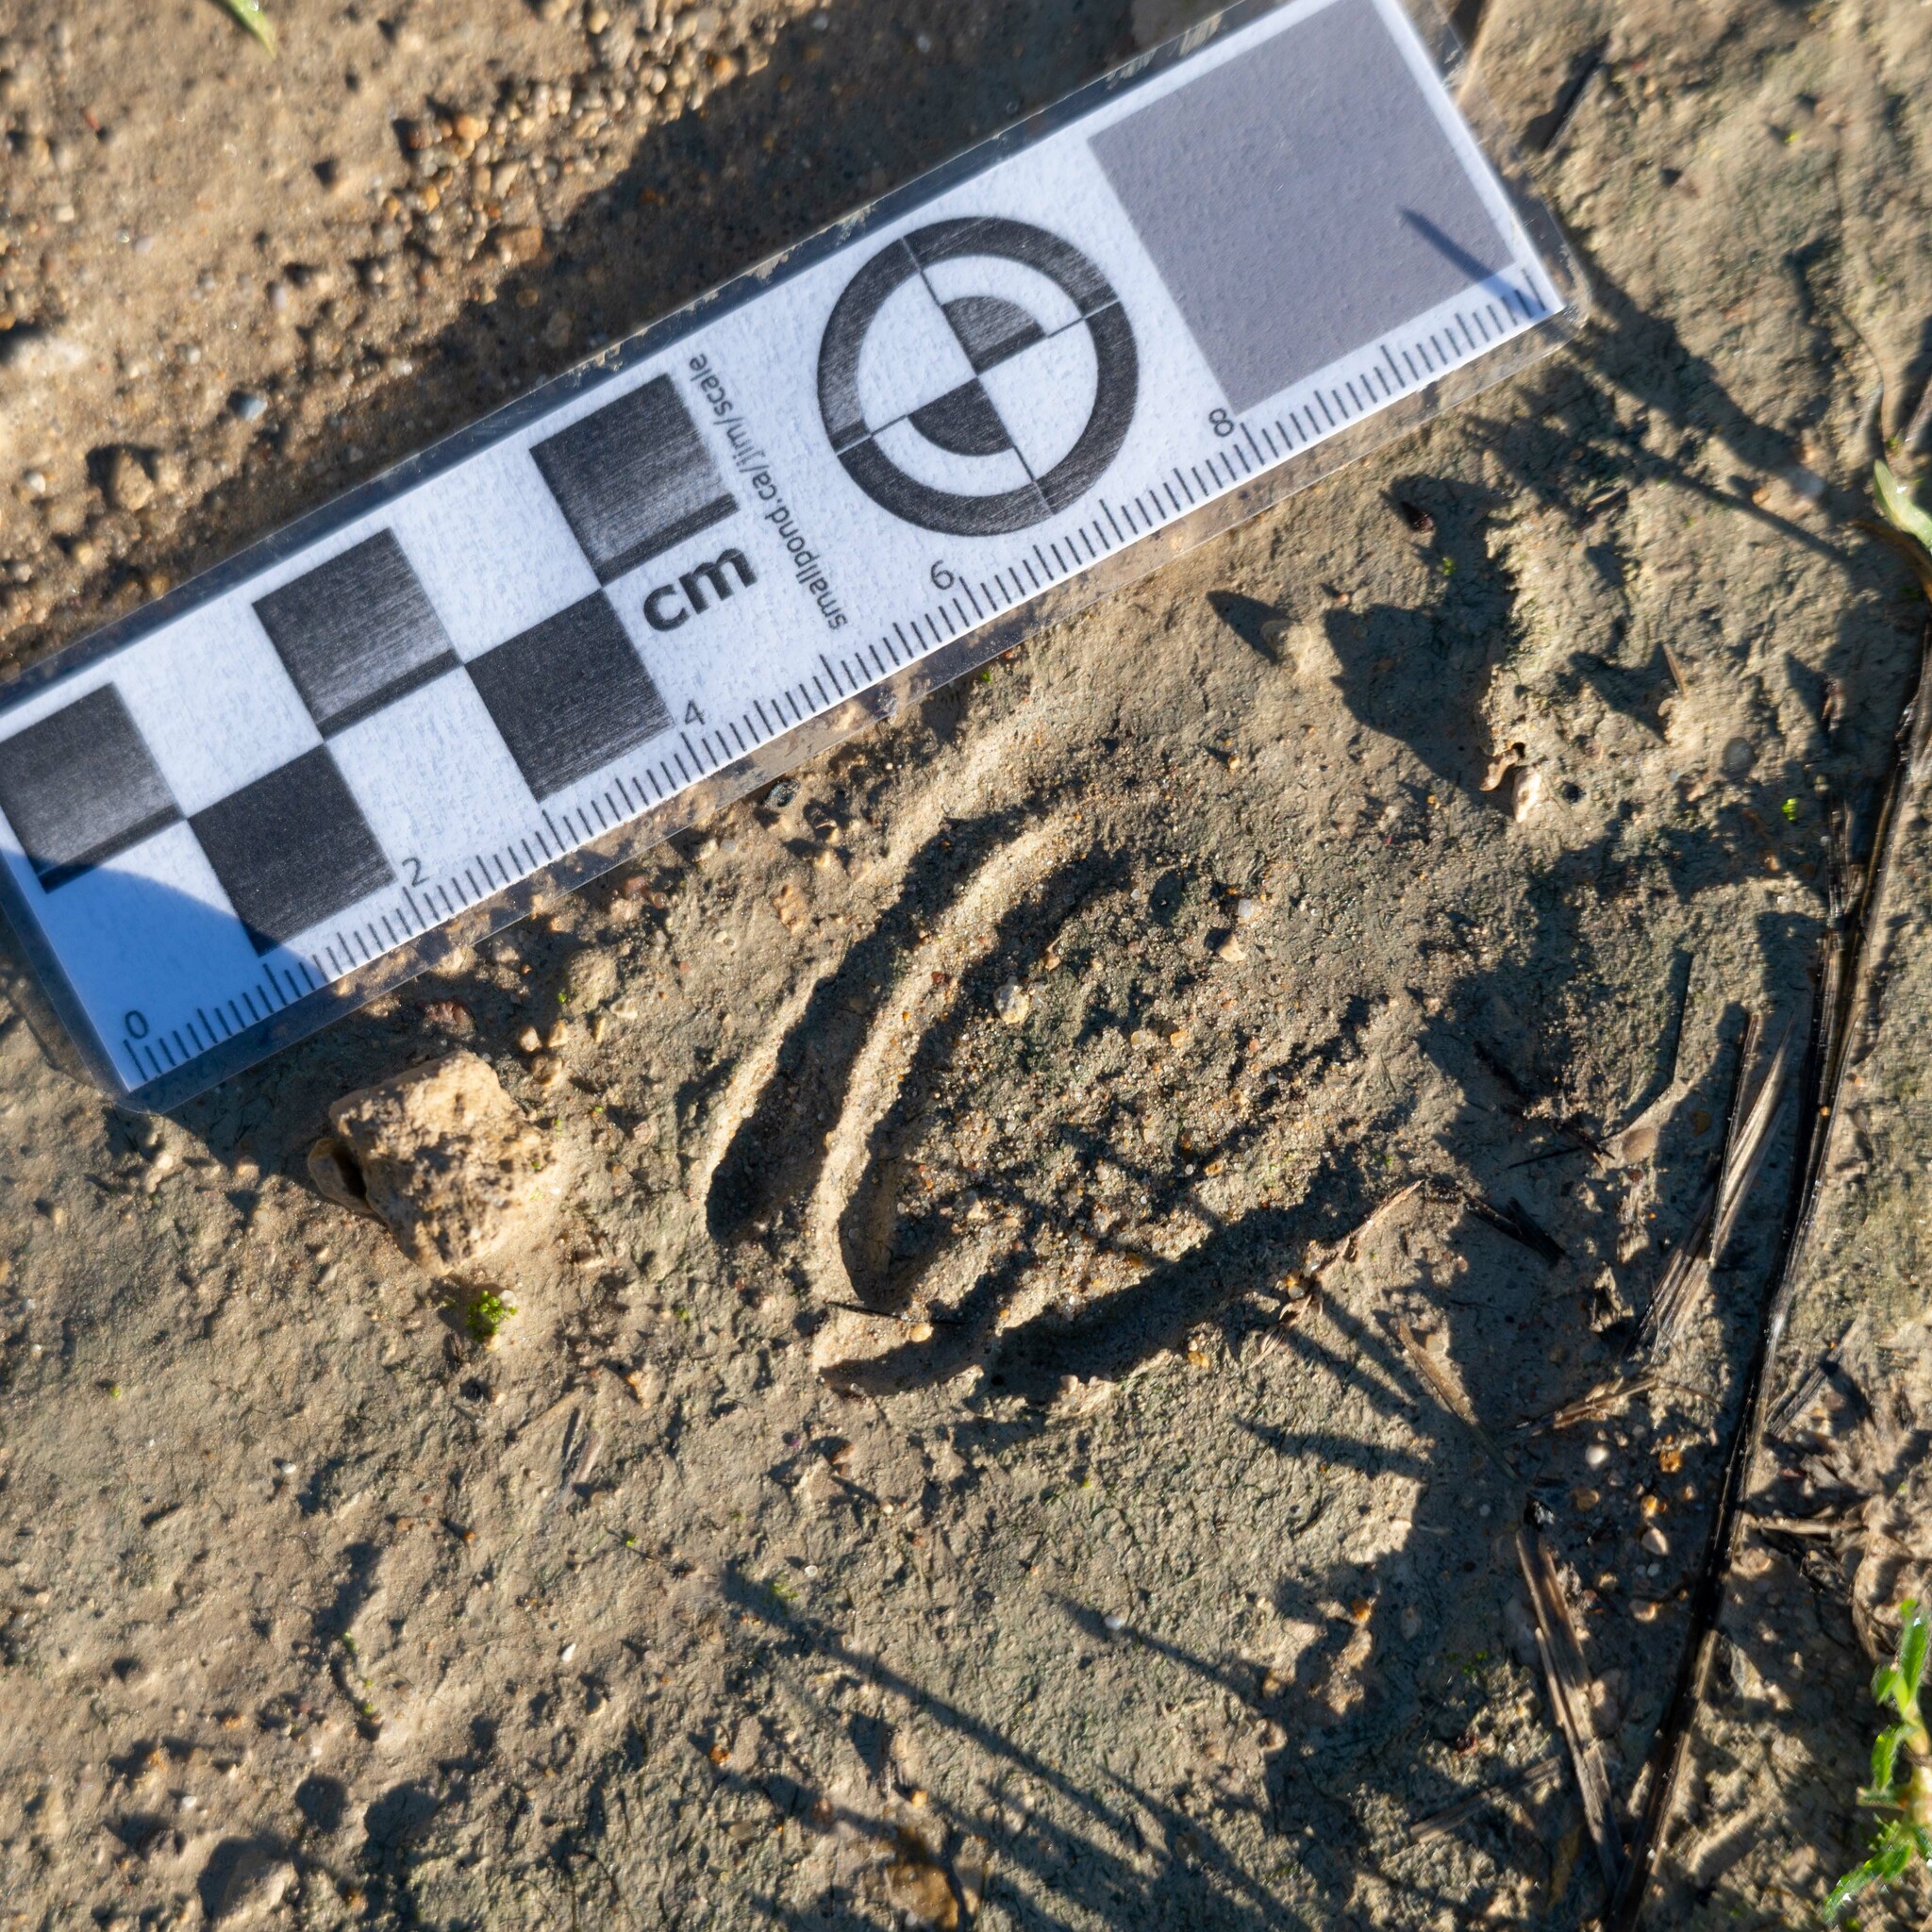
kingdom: Animalia
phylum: Chordata
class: Mammalia
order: Artiodactyla
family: Cervidae
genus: Capreolus
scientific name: Capreolus capreolus
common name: Western roe deer
